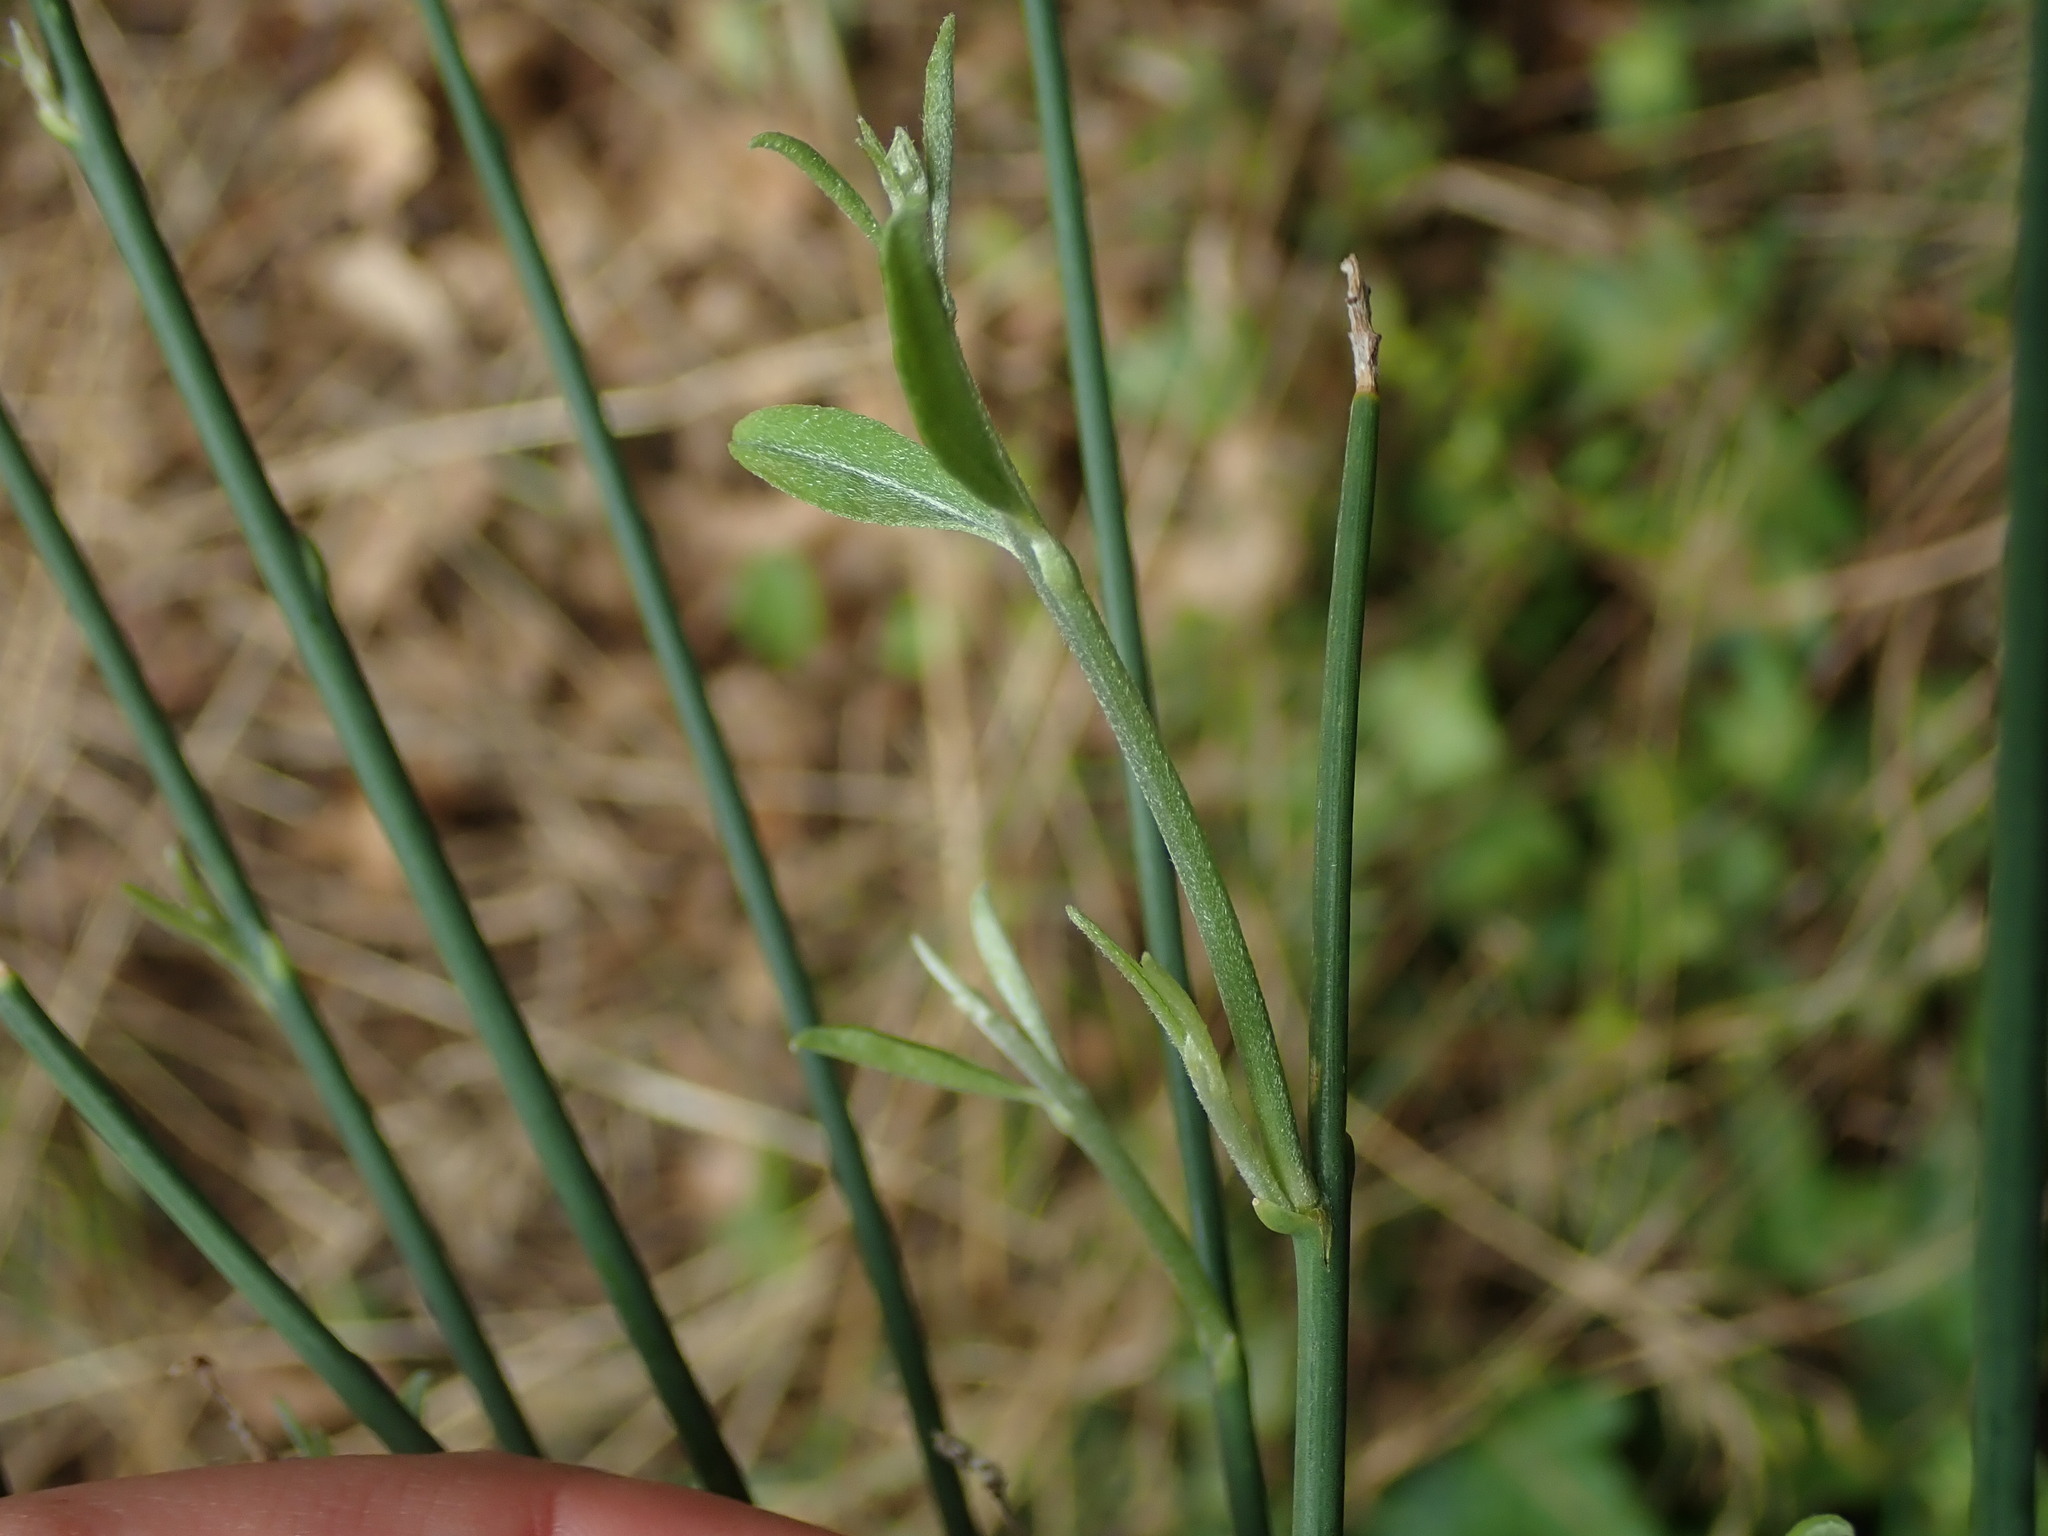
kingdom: Plantae
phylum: Tracheophyta
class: Magnoliopsida
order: Fabales
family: Fabaceae
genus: Spartium
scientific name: Spartium junceum
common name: Spanish broom
